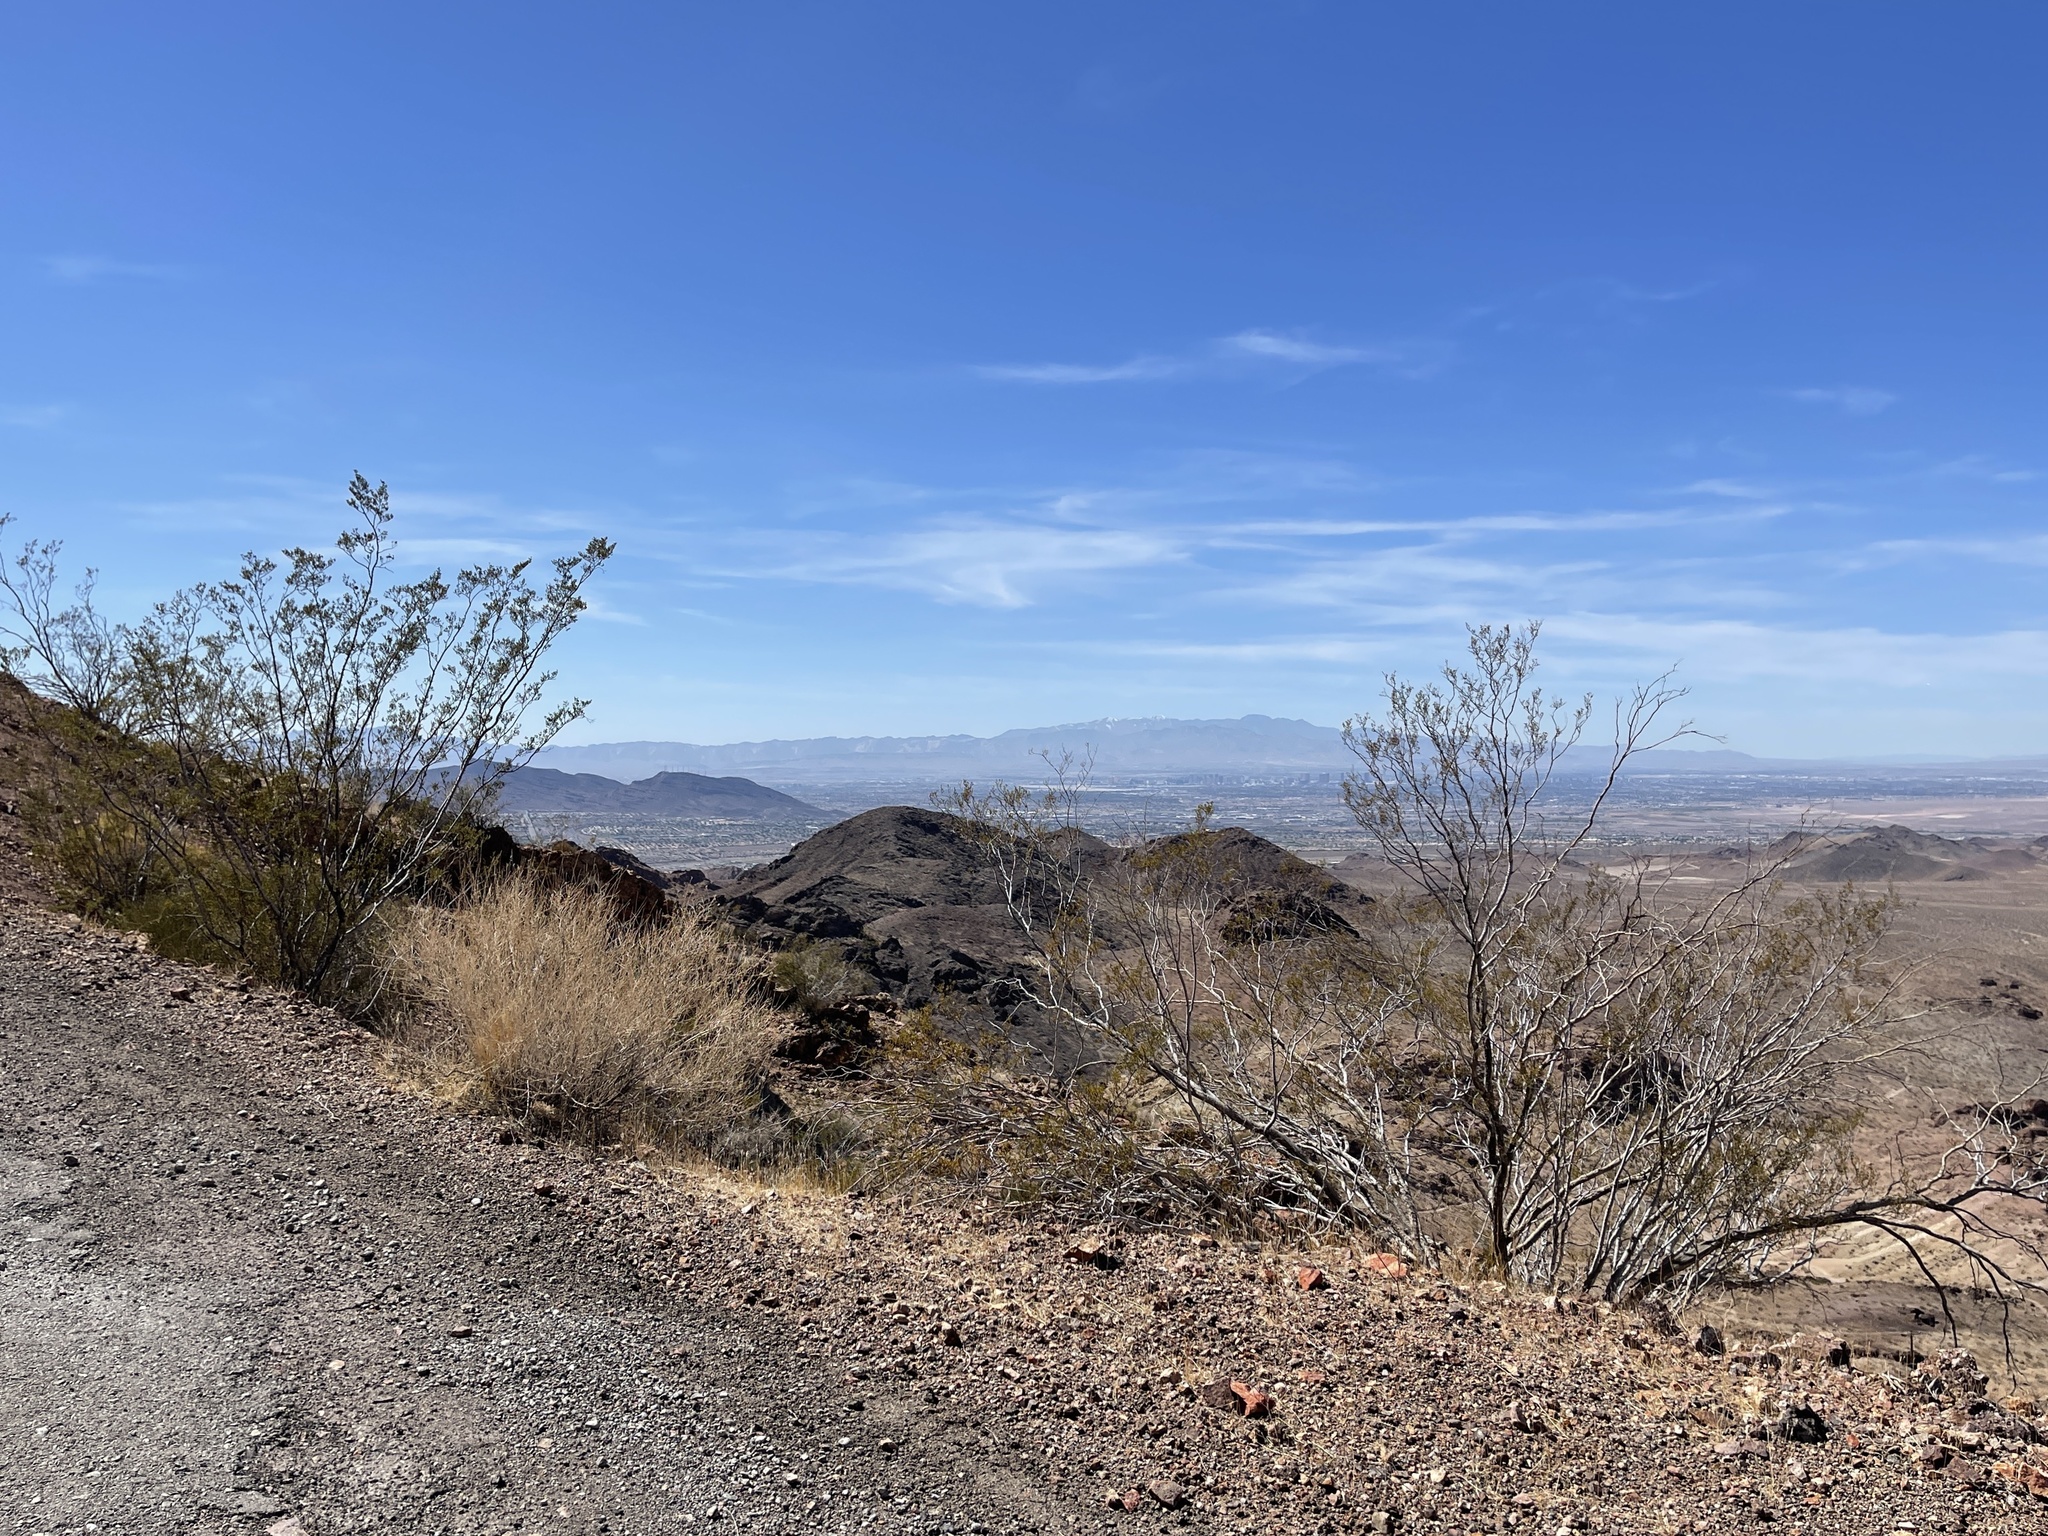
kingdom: Plantae
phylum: Tracheophyta
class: Magnoliopsida
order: Zygophyllales
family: Zygophyllaceae
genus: Larrea
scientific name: Larrea tridentata
